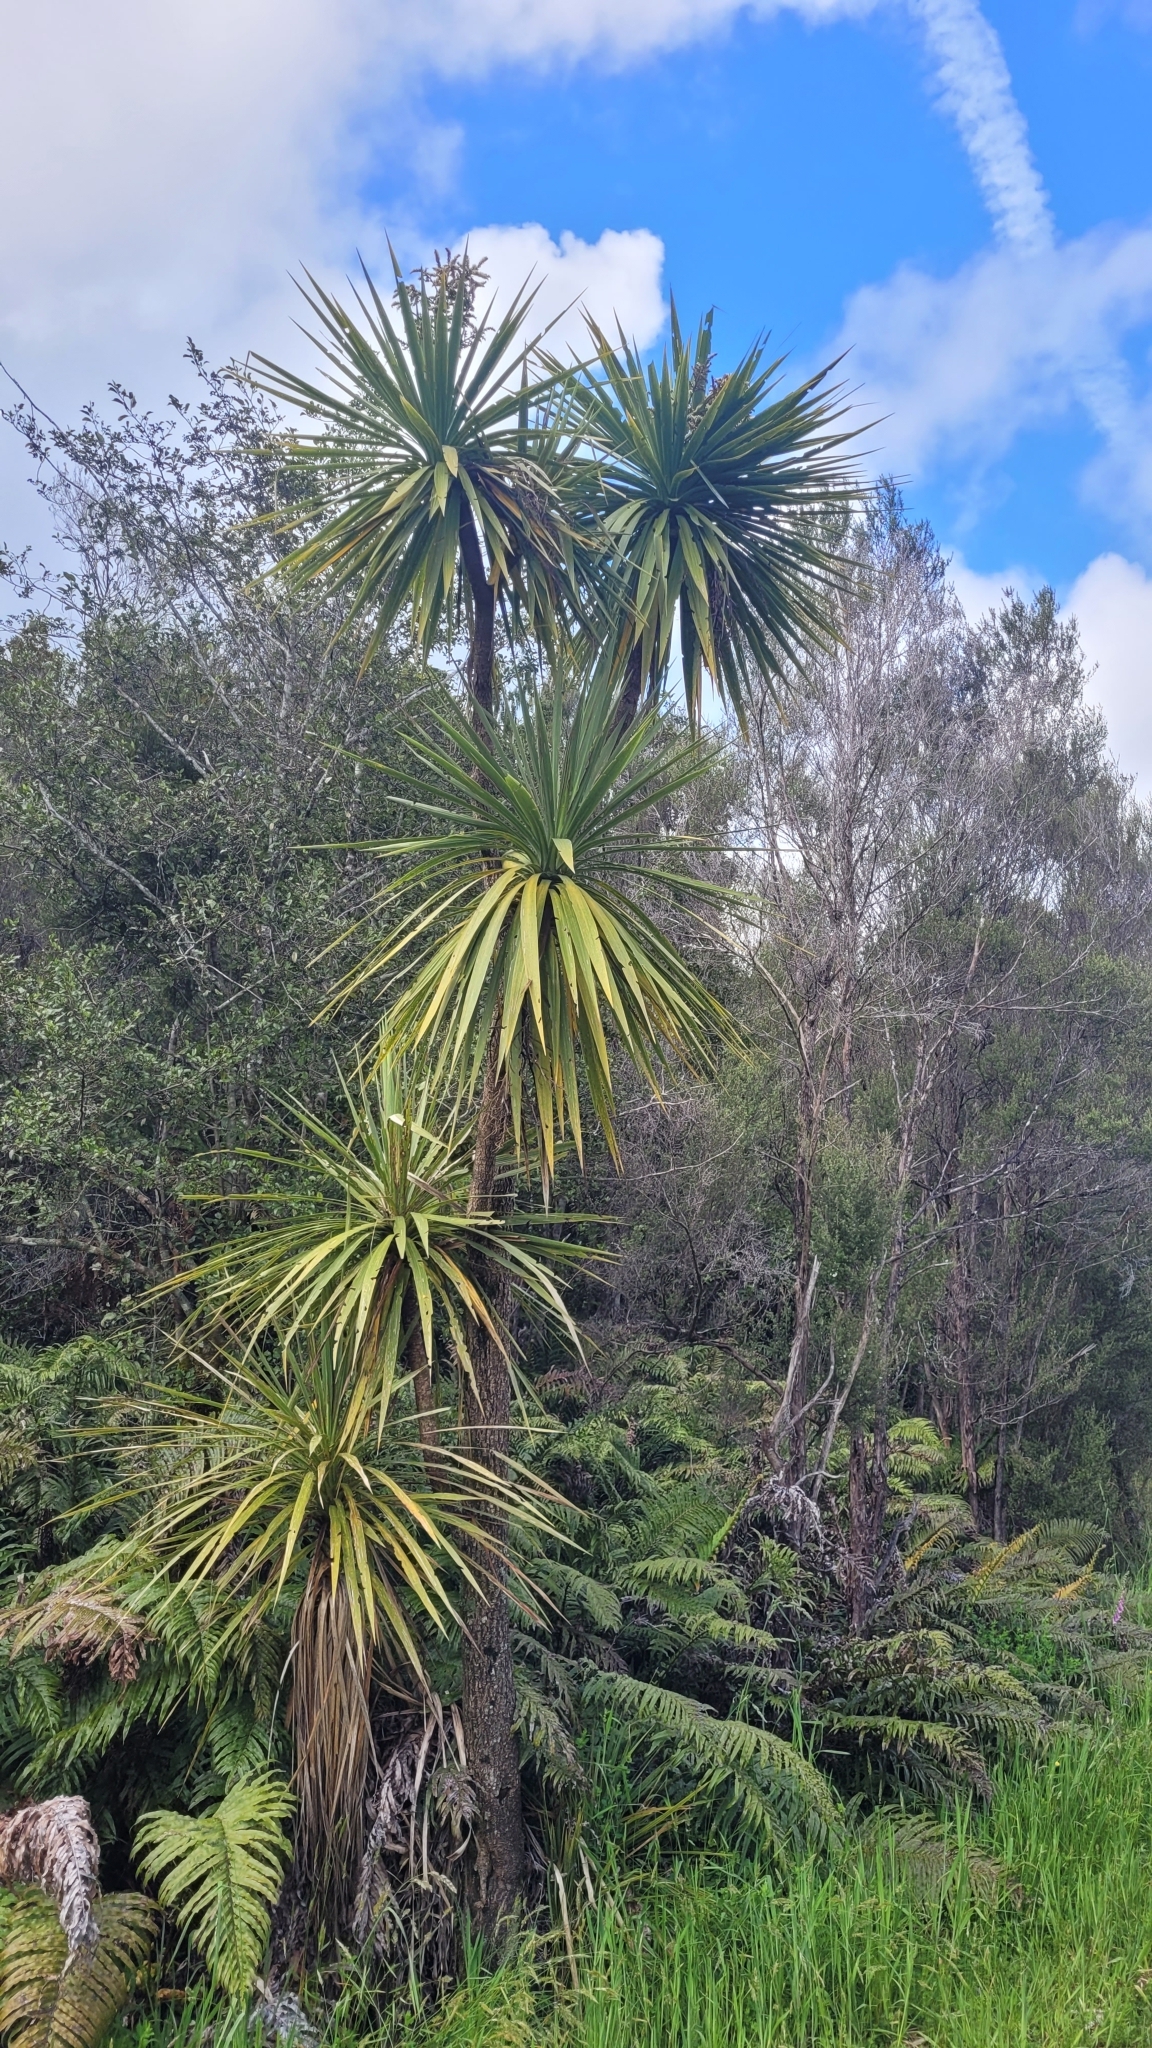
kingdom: Plantae
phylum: Tracheophyta
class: Liliopsida
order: Asparagales
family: Asparagaceae
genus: Cordyline
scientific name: Cordyline australis
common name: Cabbage-palm
